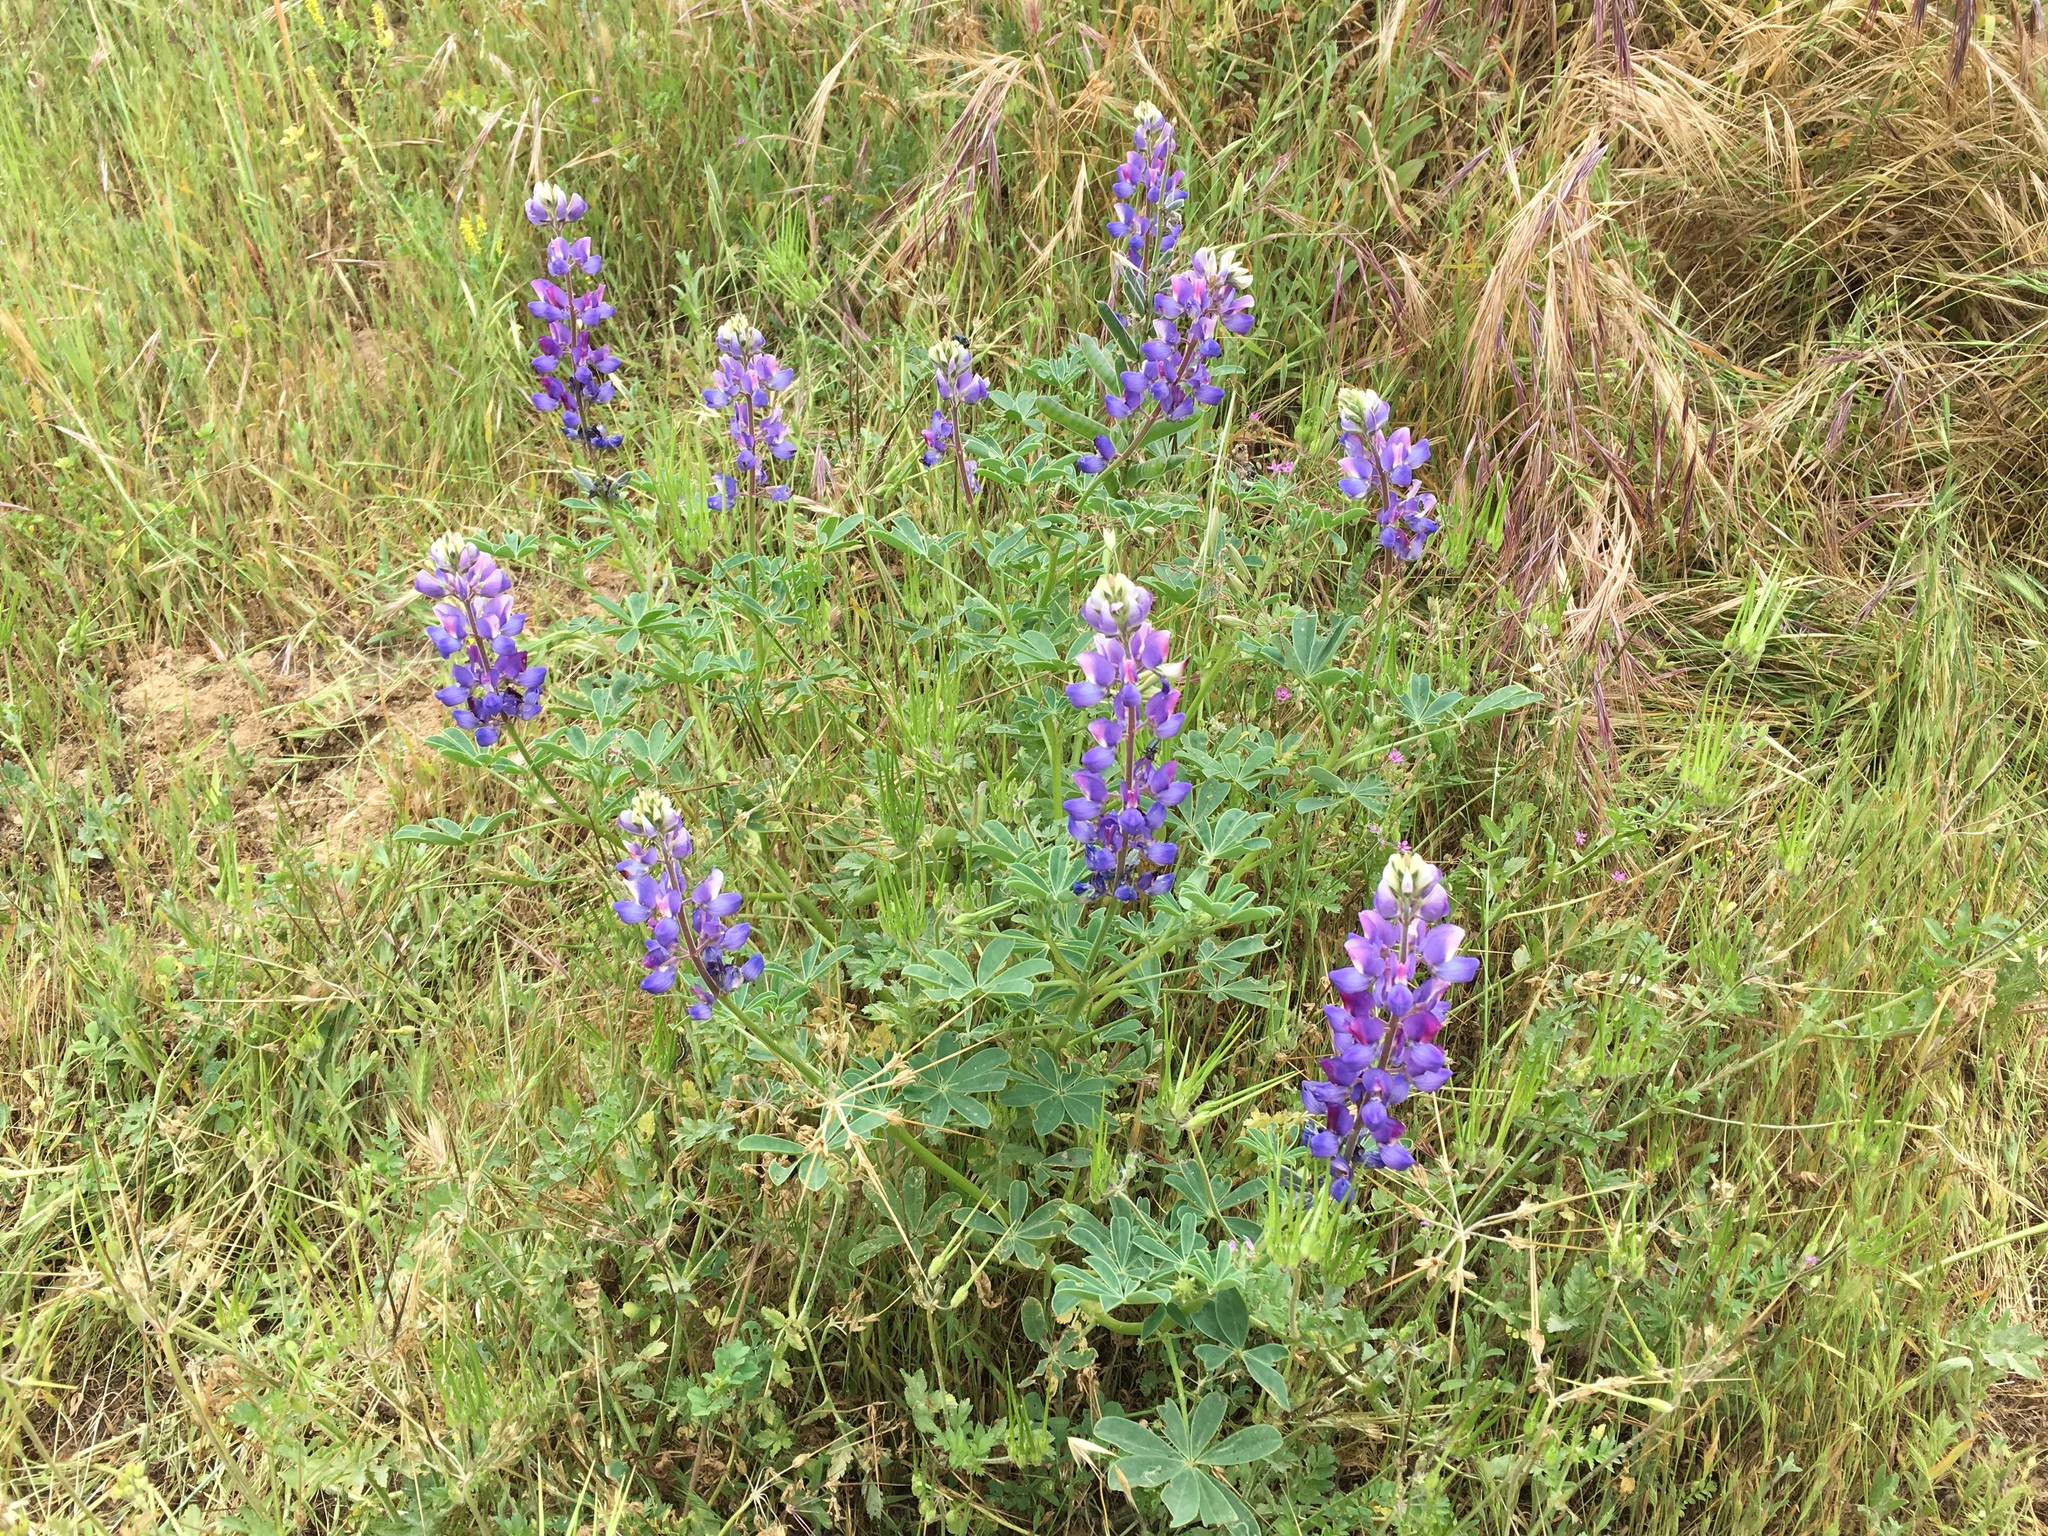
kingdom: Plantae
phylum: Tracheophyta
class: Magnoliopsida
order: Fabales
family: Fabaceae
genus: Lupinus
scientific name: Lupinus succulentus
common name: Arroyo lupine
